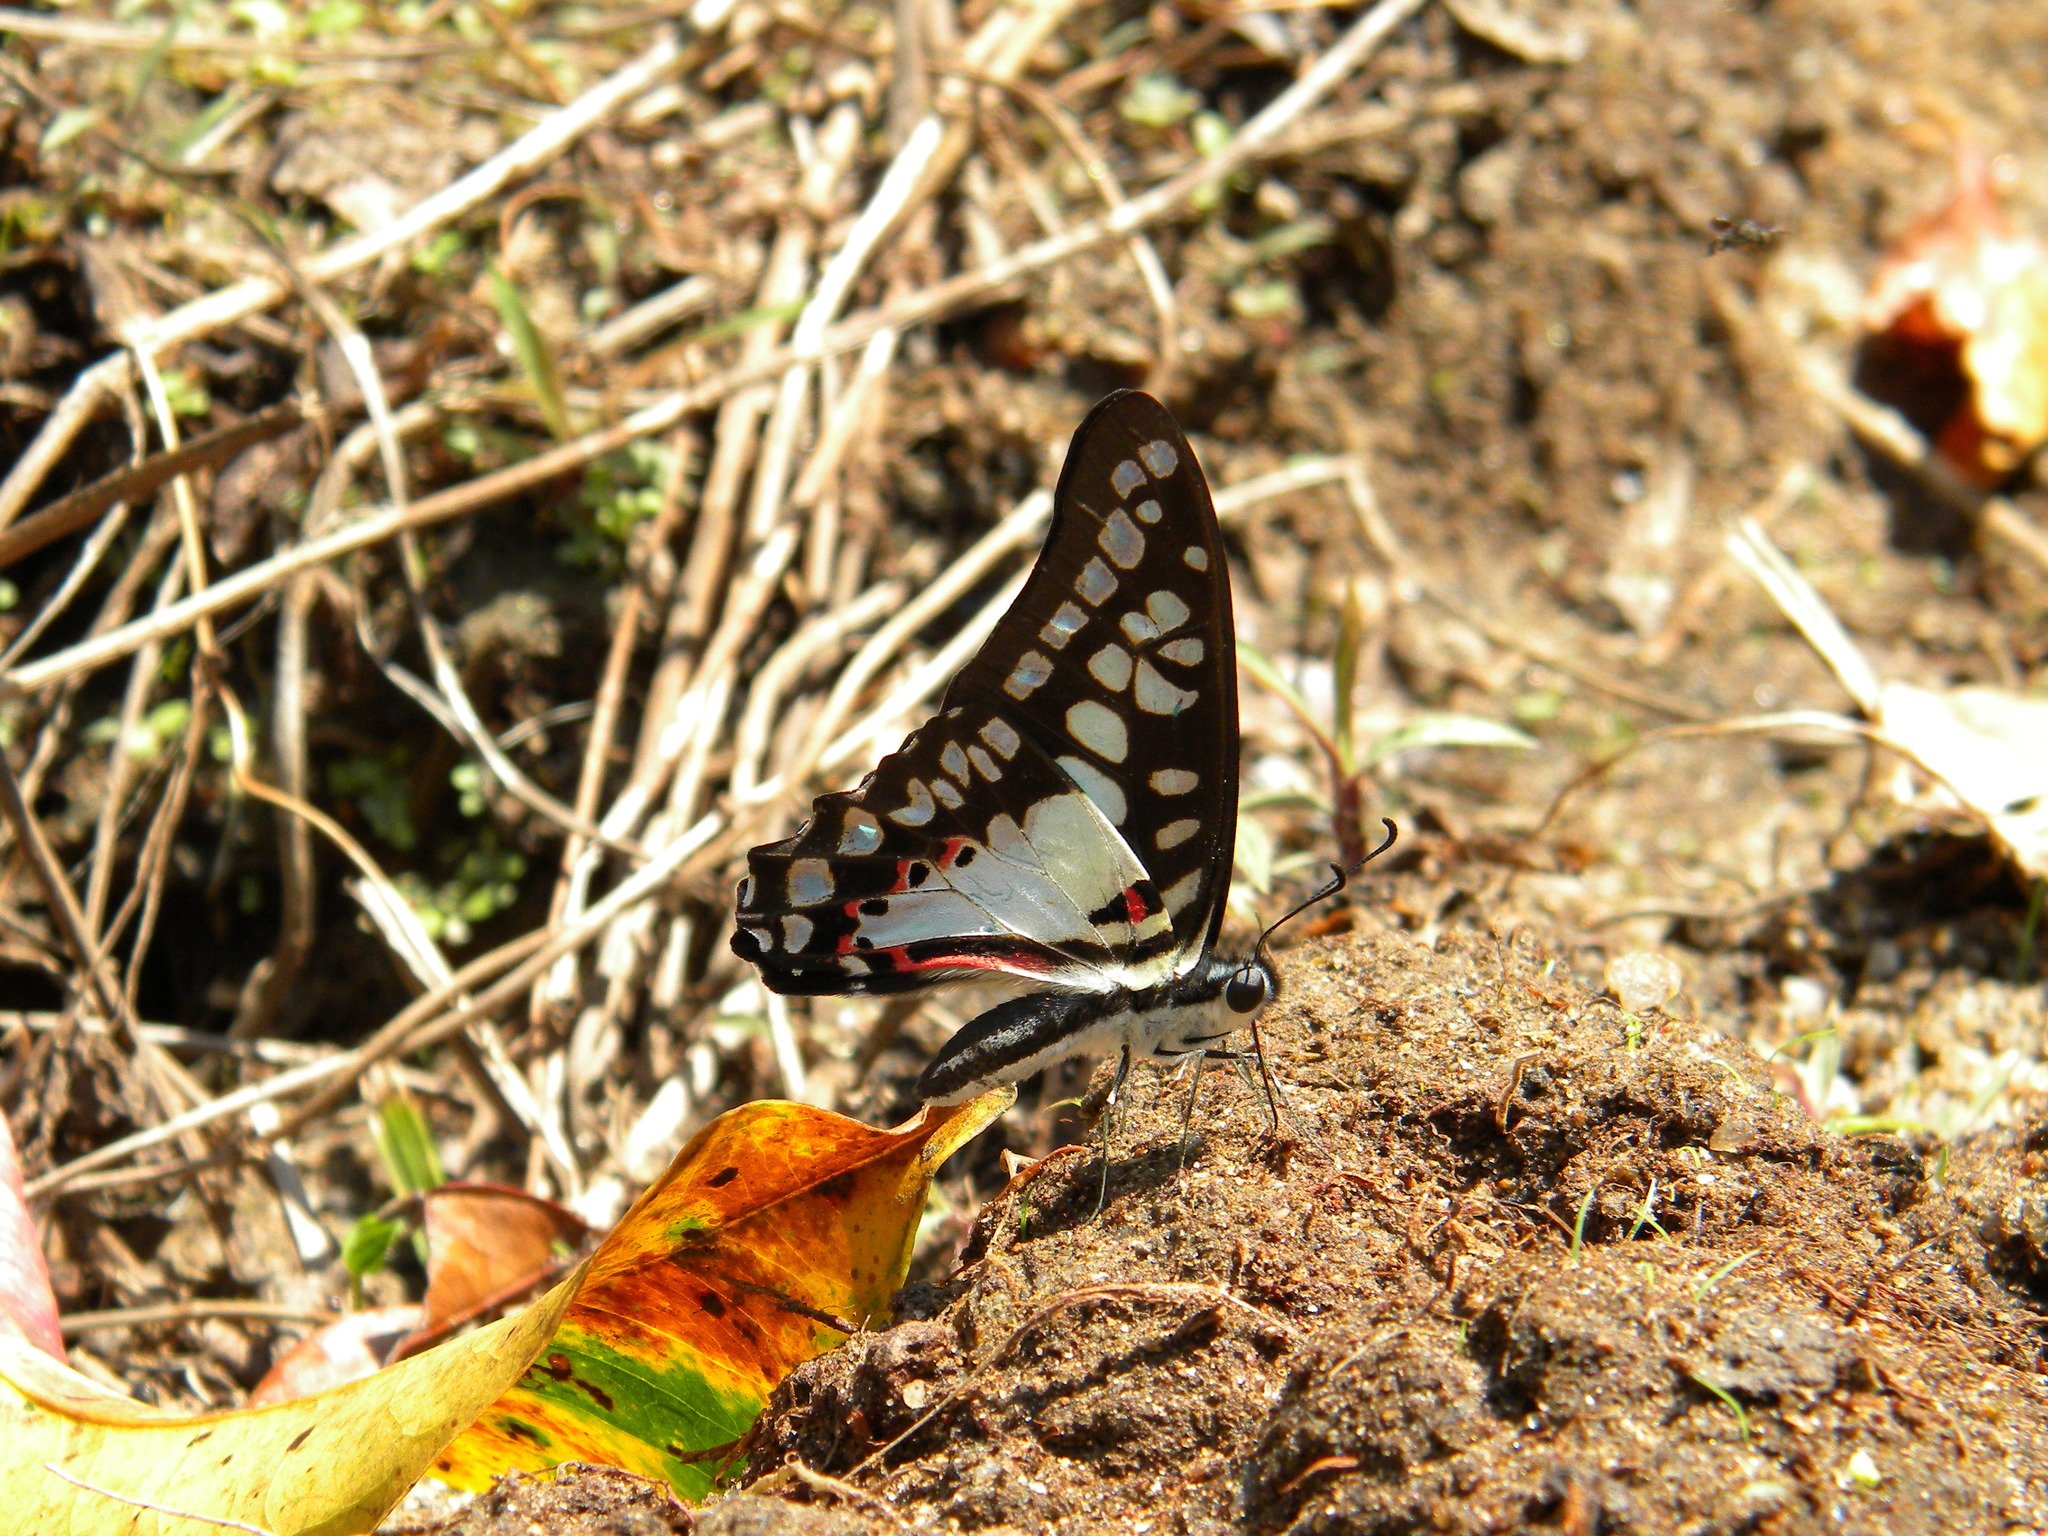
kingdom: Animalia
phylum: Arthropoda
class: Insecta
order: Lepidoptera
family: Papilionidae
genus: Graphium
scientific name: Graphium doson
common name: Common jay
